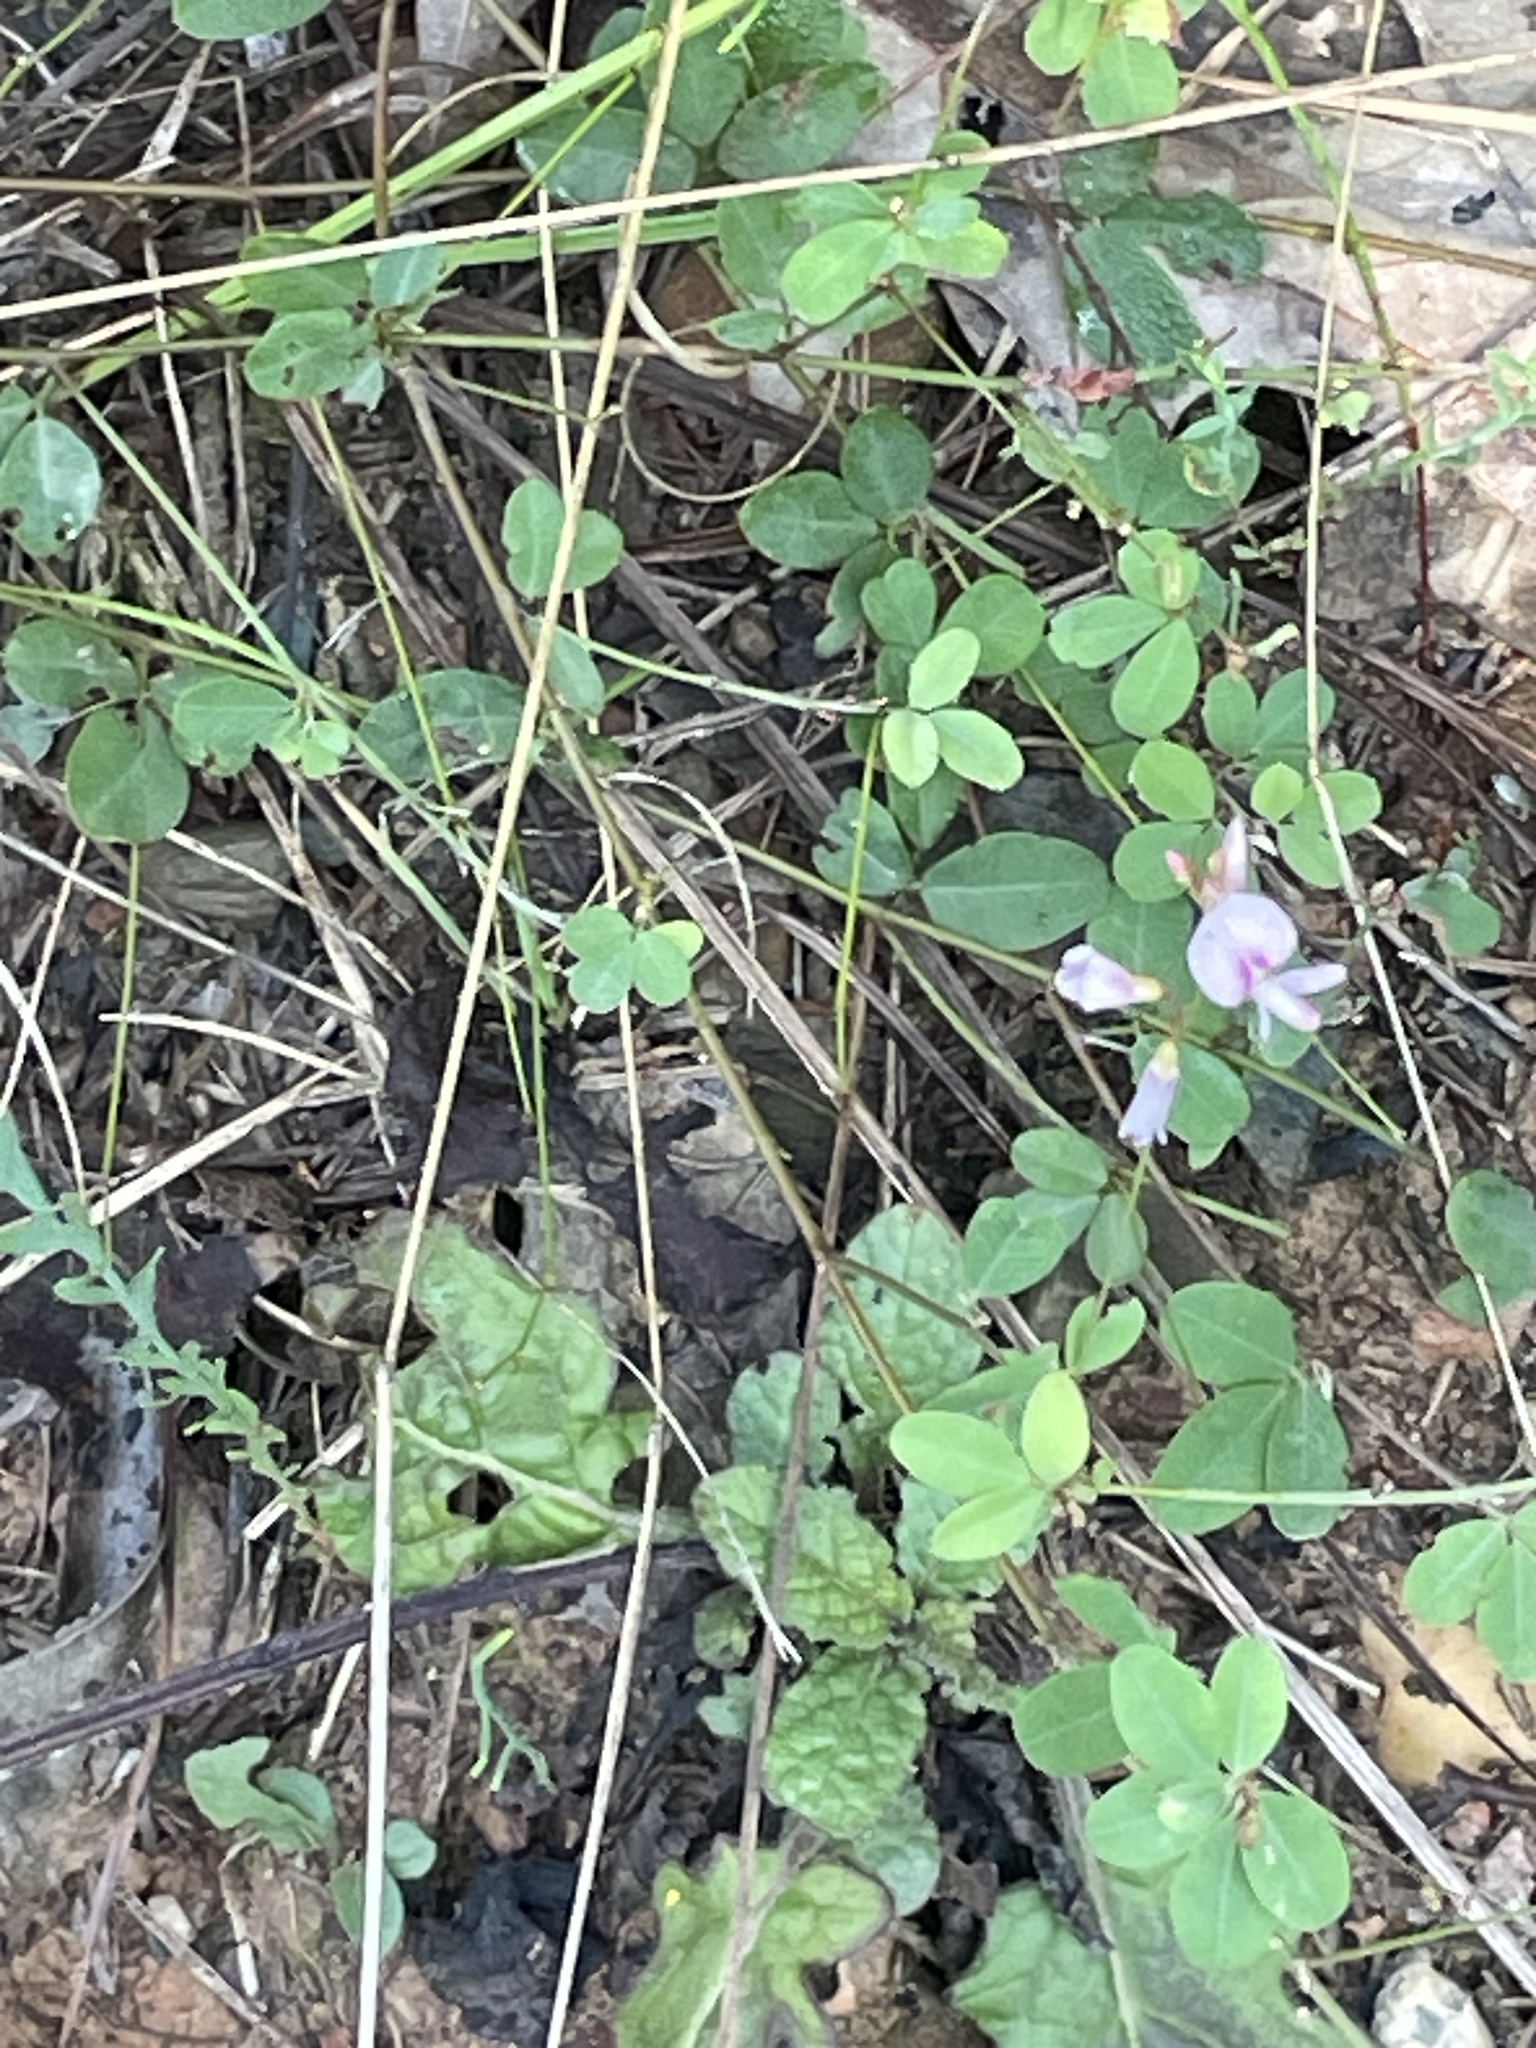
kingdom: Plantae
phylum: Tracheophyta
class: Magnoliopsida
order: Fabales
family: Fabaceae
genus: Lespedeza
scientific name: Lespedeza repens
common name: Creeping bush-clover
